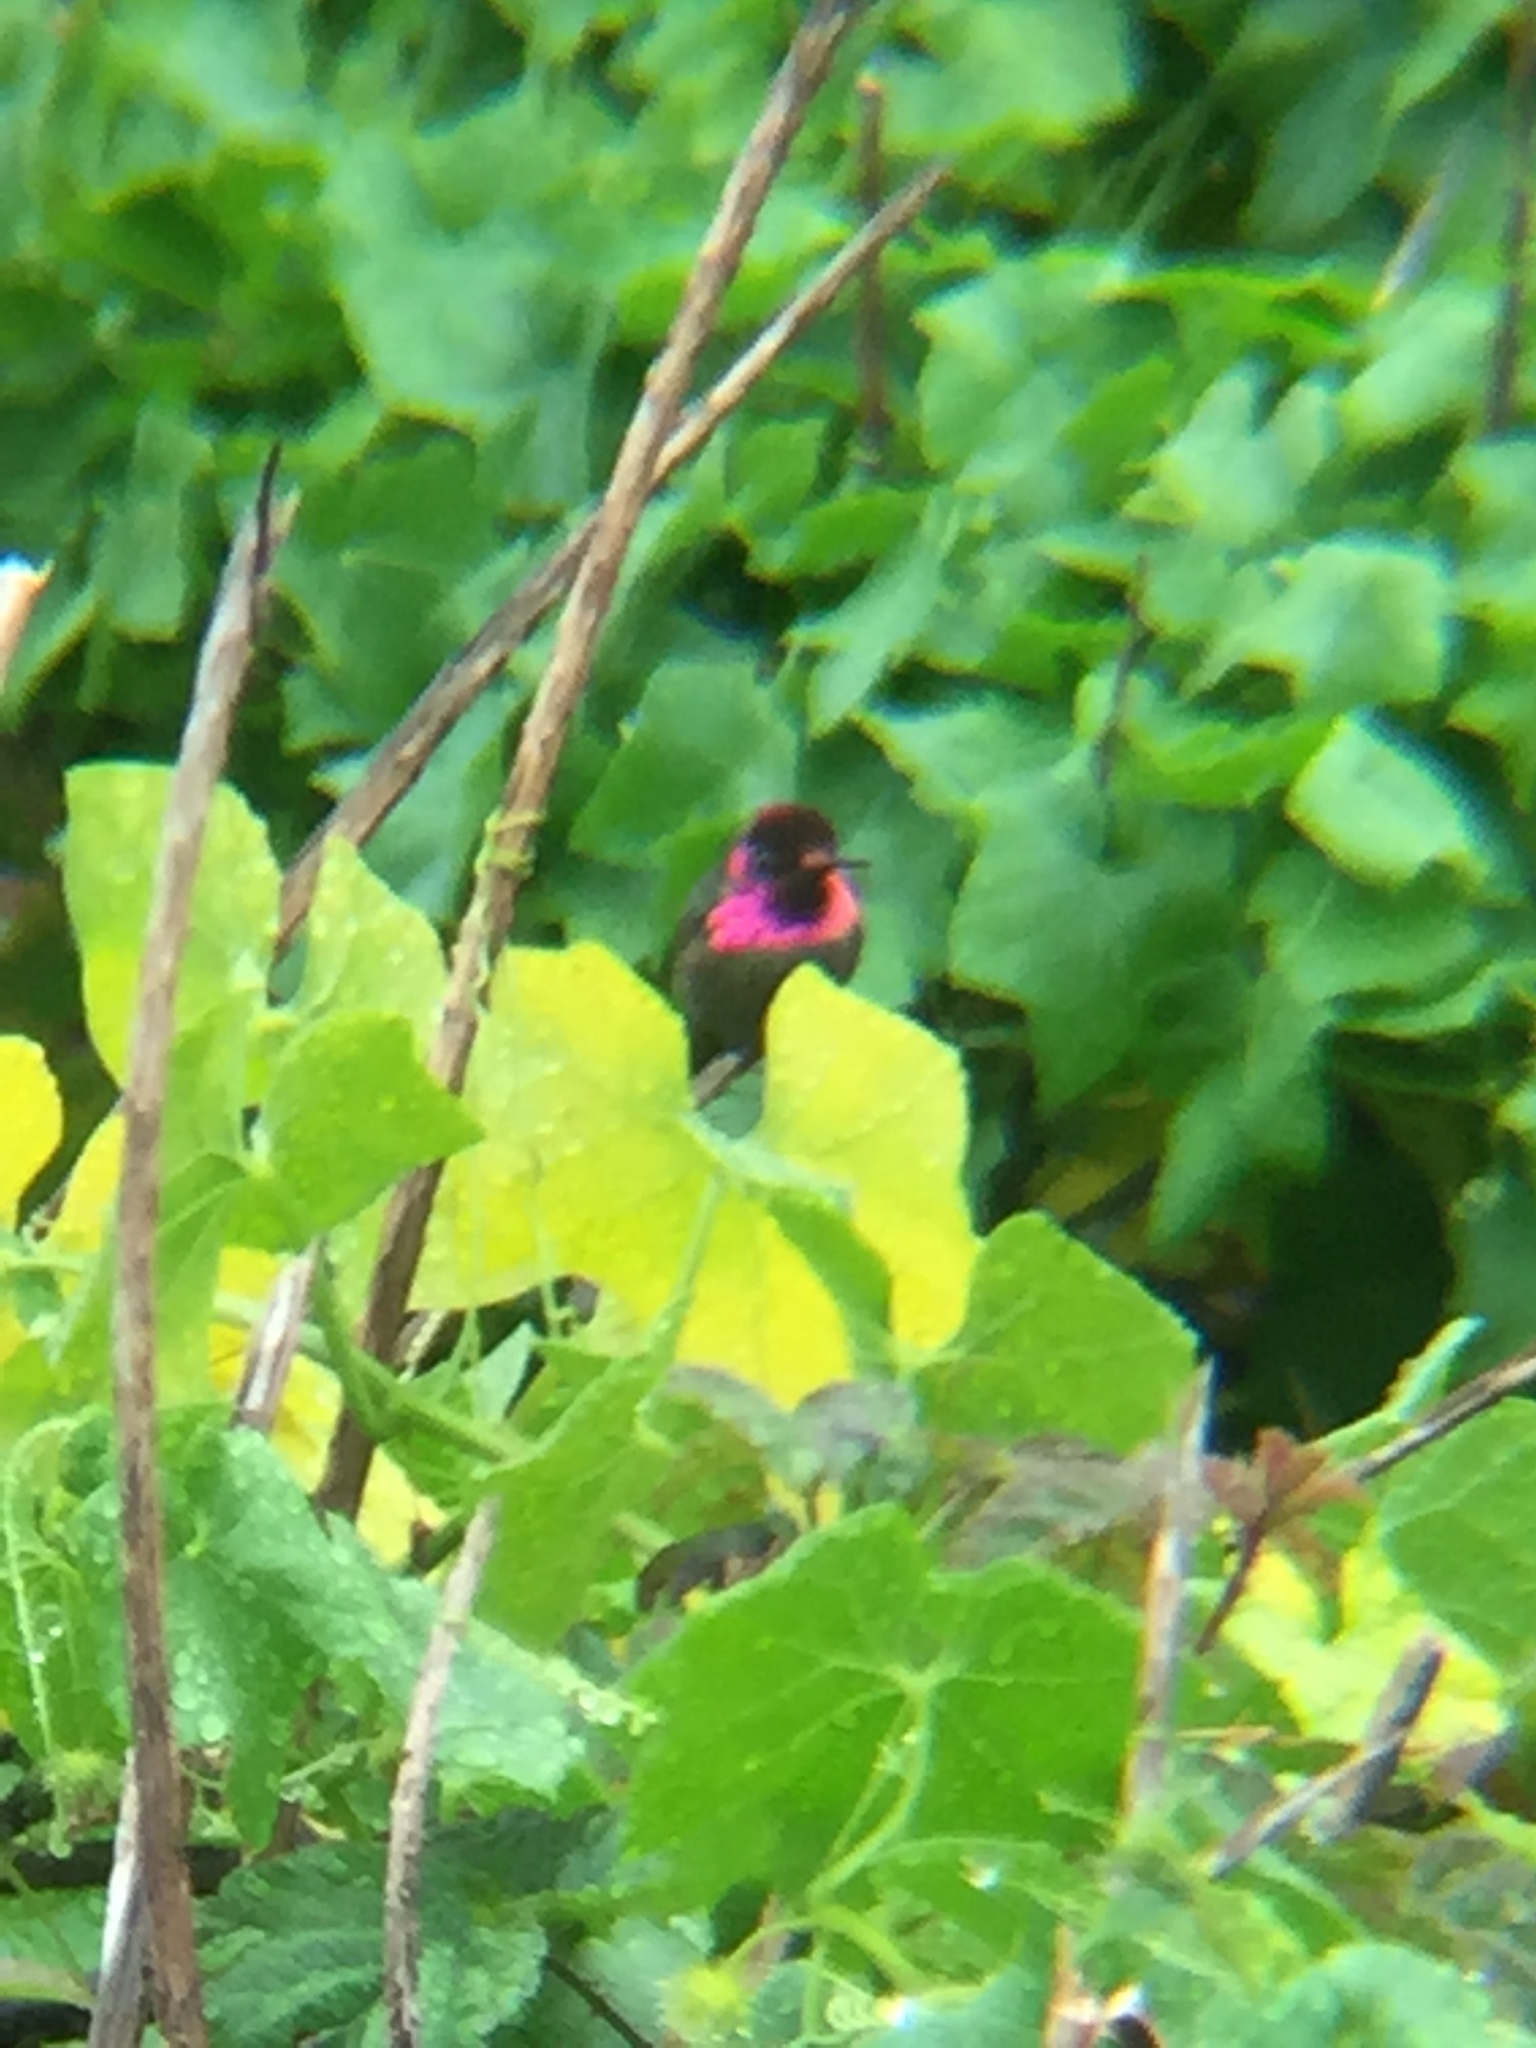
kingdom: Animalia
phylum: Chordata
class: Aves
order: Apodiformes
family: Trochilidae
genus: Calypte
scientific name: Calypte anna
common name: Anna's hummingbird
